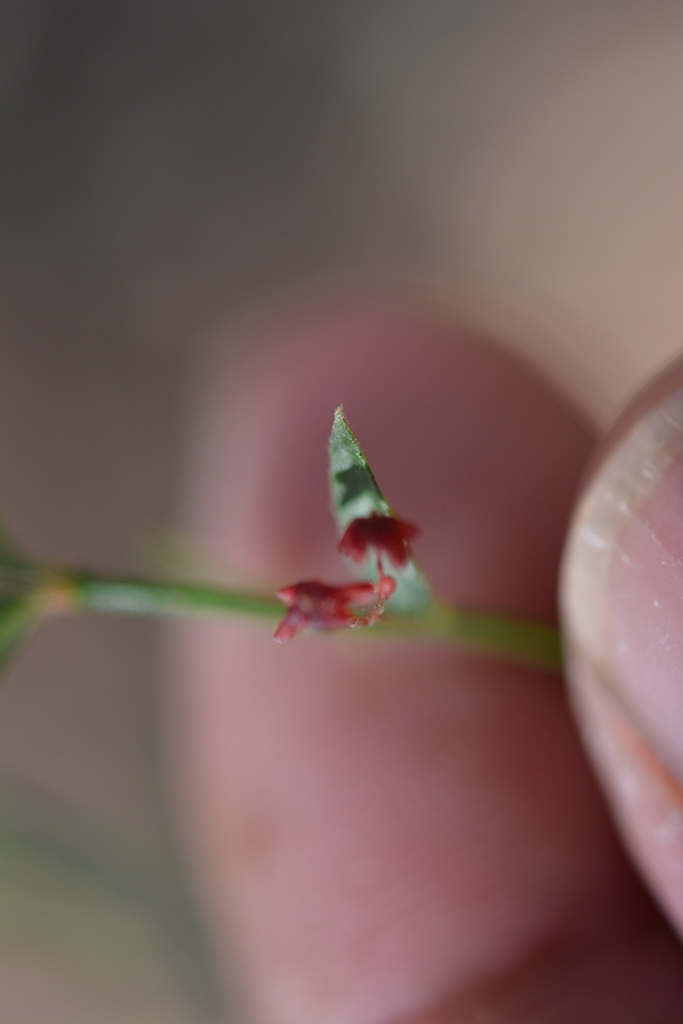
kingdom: Plantae
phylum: Tracheophyta
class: Magnoliopsida
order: Celastrales
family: Celastraceae
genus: Crossopetalum
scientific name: Crossopetalum uragoga
